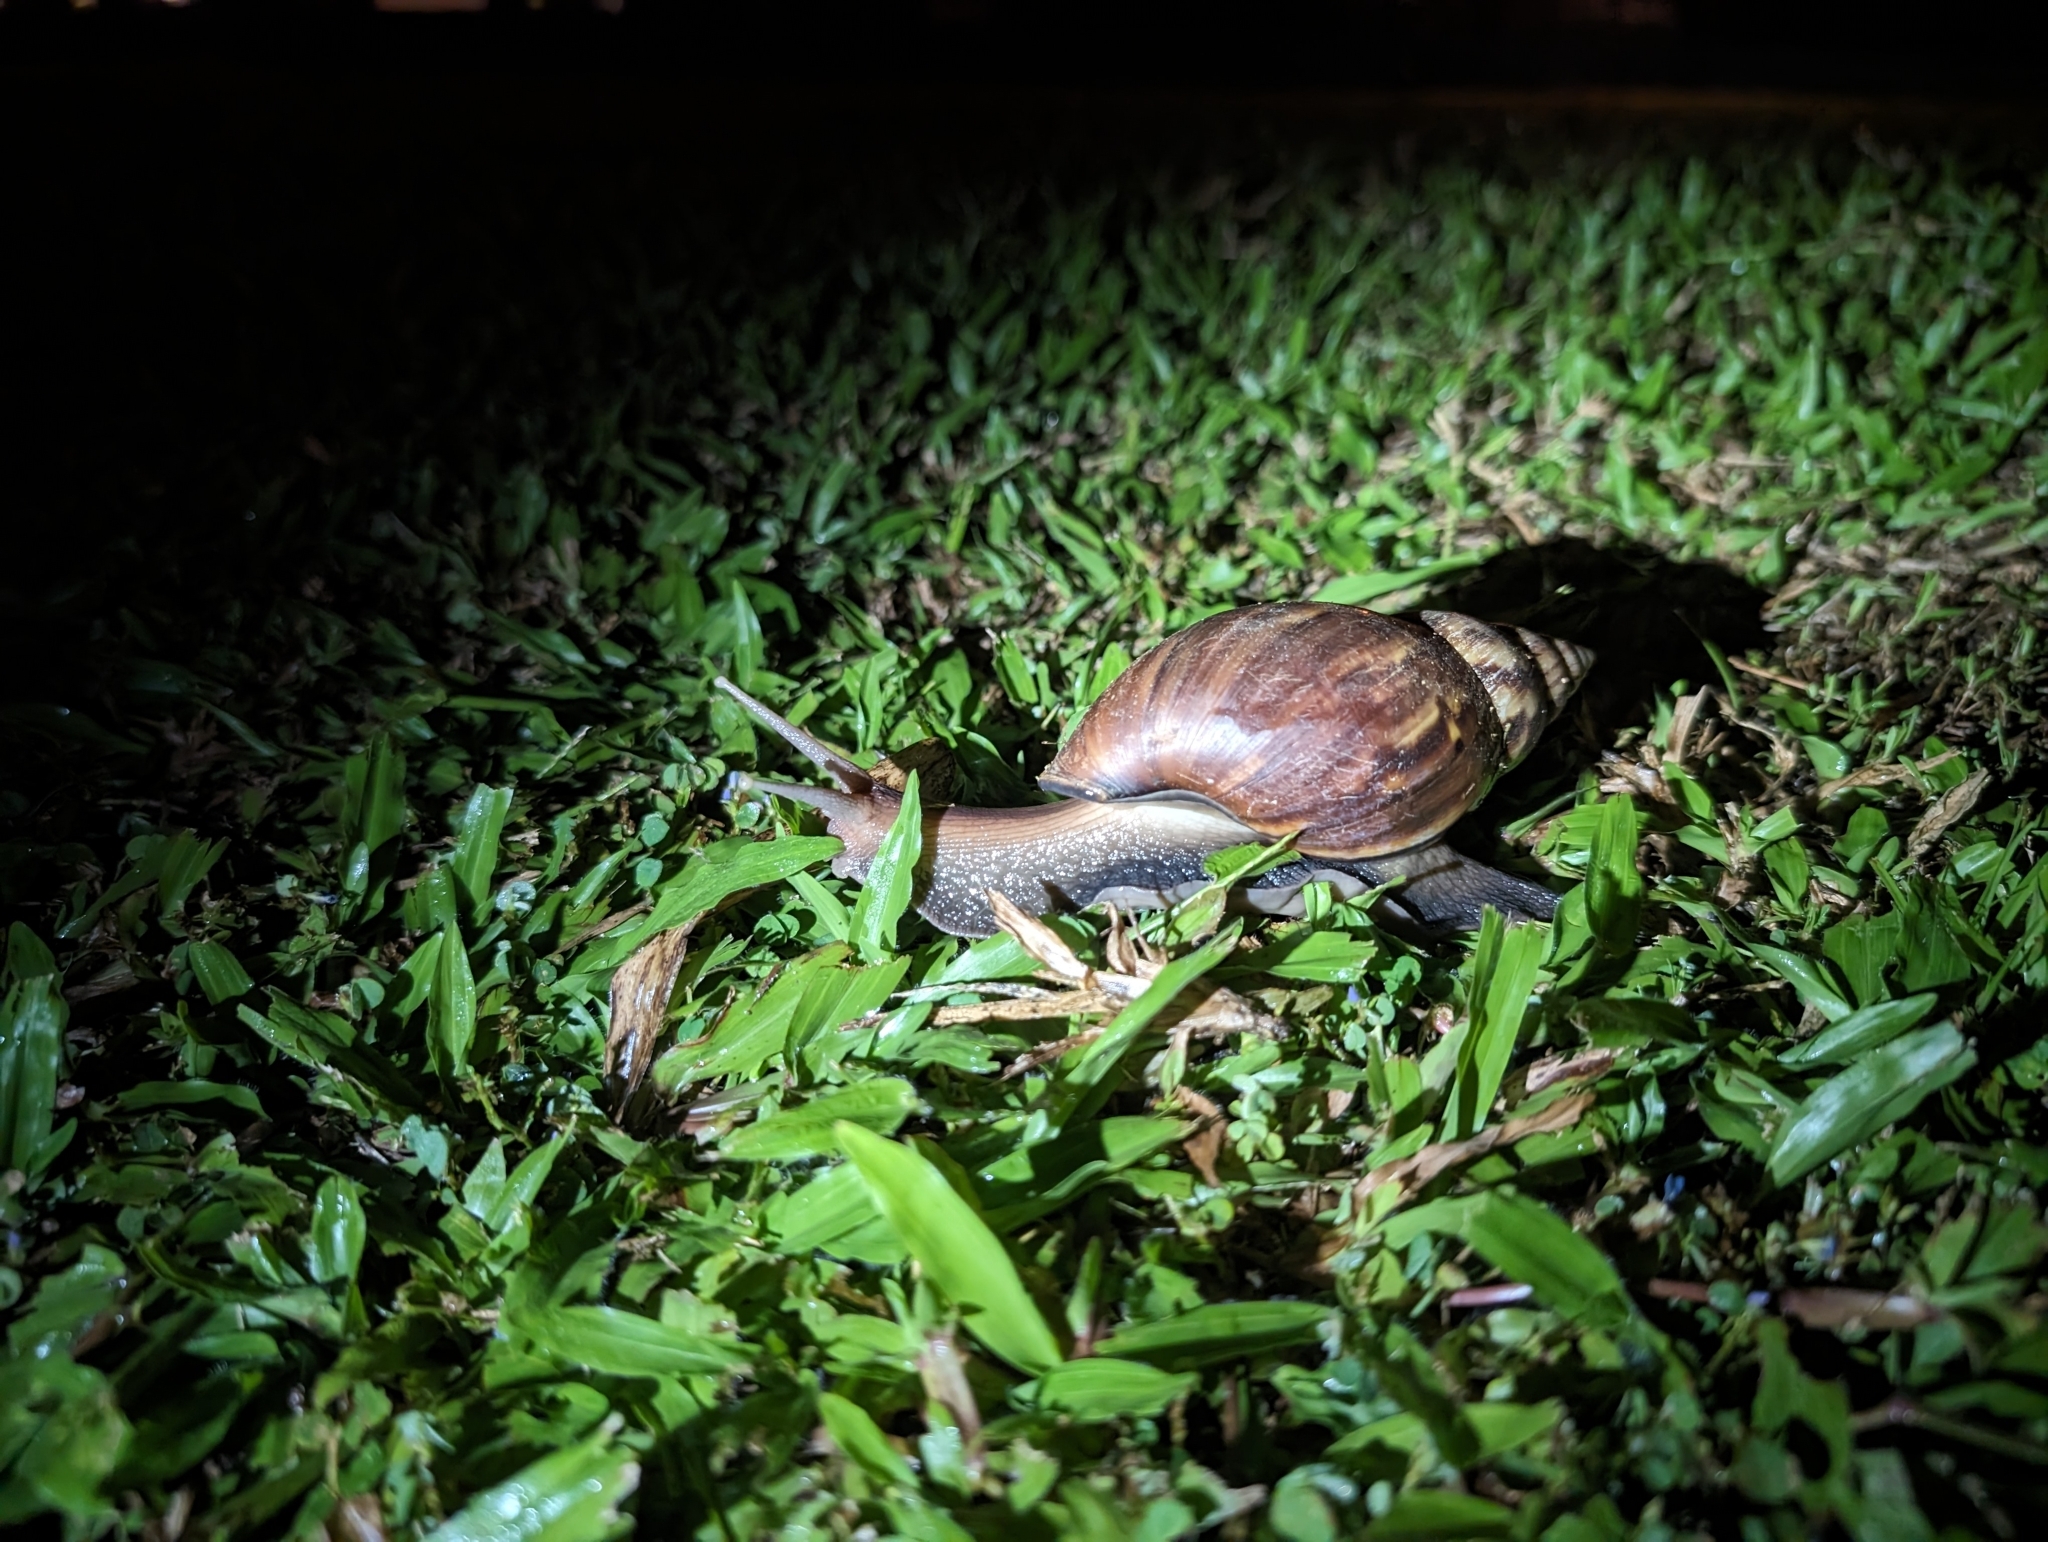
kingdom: Animalia
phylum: Mollusca
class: Gastropoda
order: Stylommatophora
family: Achatinidae
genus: Lissachatina
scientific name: Lissachatina fulica
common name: Giant african snail
